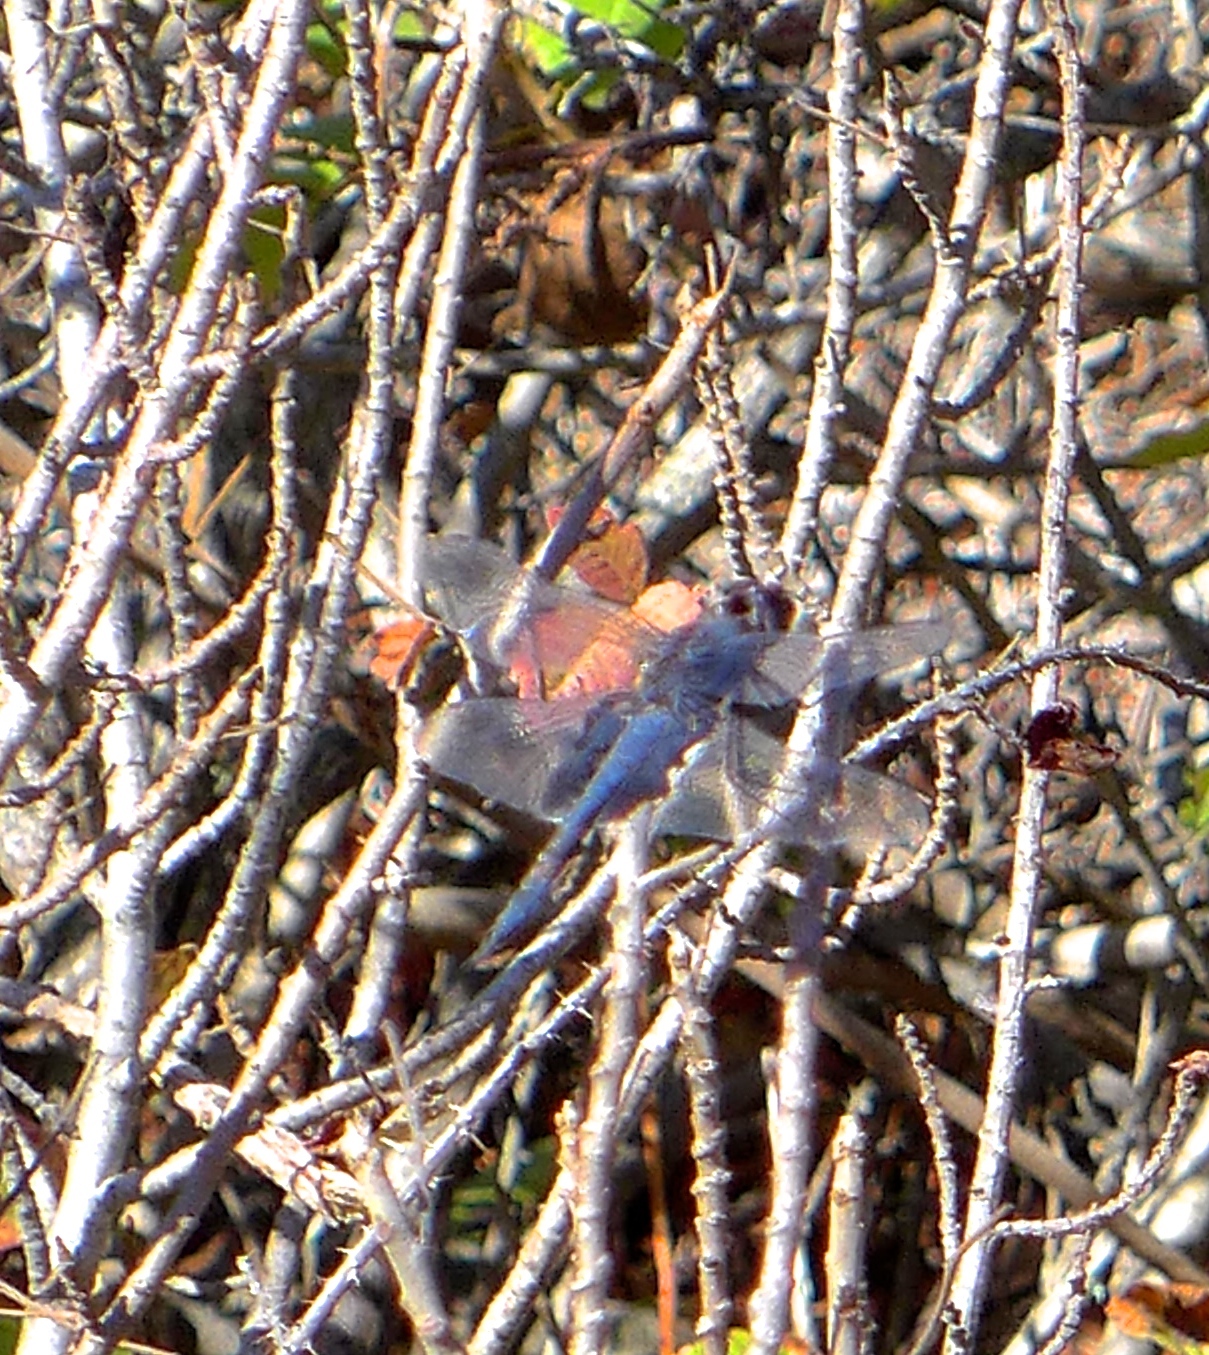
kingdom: Animalia
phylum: Arthropoda
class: Insecta
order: Odonata
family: Libellulidae
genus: Tramea
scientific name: Tramea lacerata
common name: Black saddlebags
